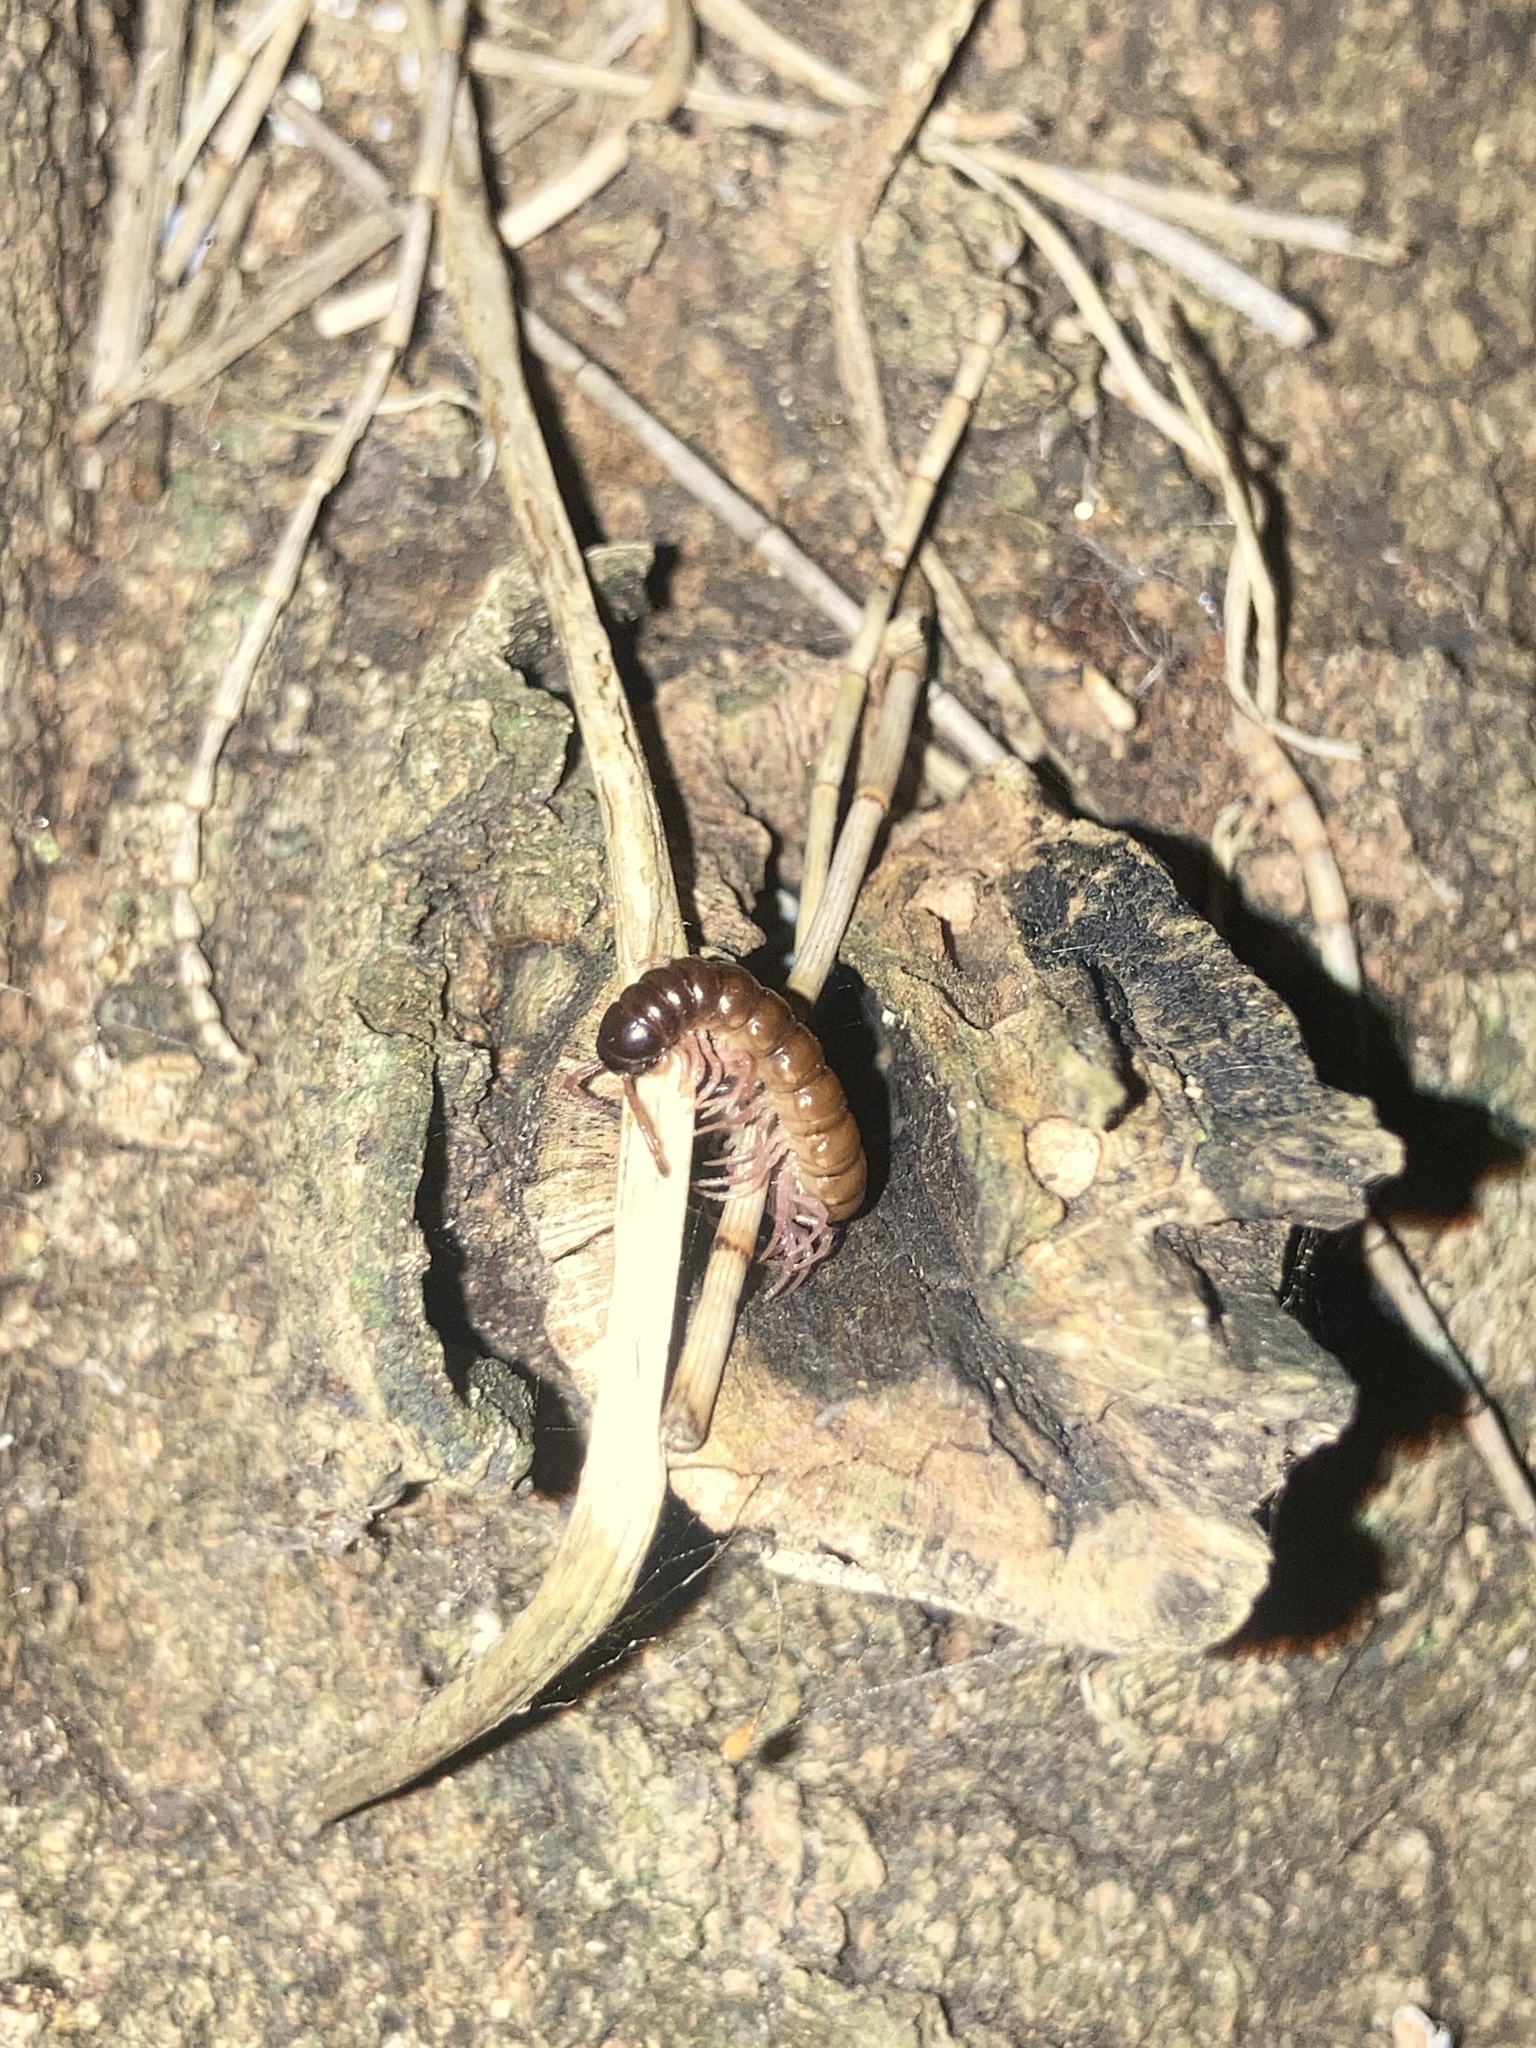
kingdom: Animalia
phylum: Arthropoda
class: Diplopoda
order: Polydesmida
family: Paradoxosomatidae
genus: Heterocladosoma
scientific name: Heterocladosoma
